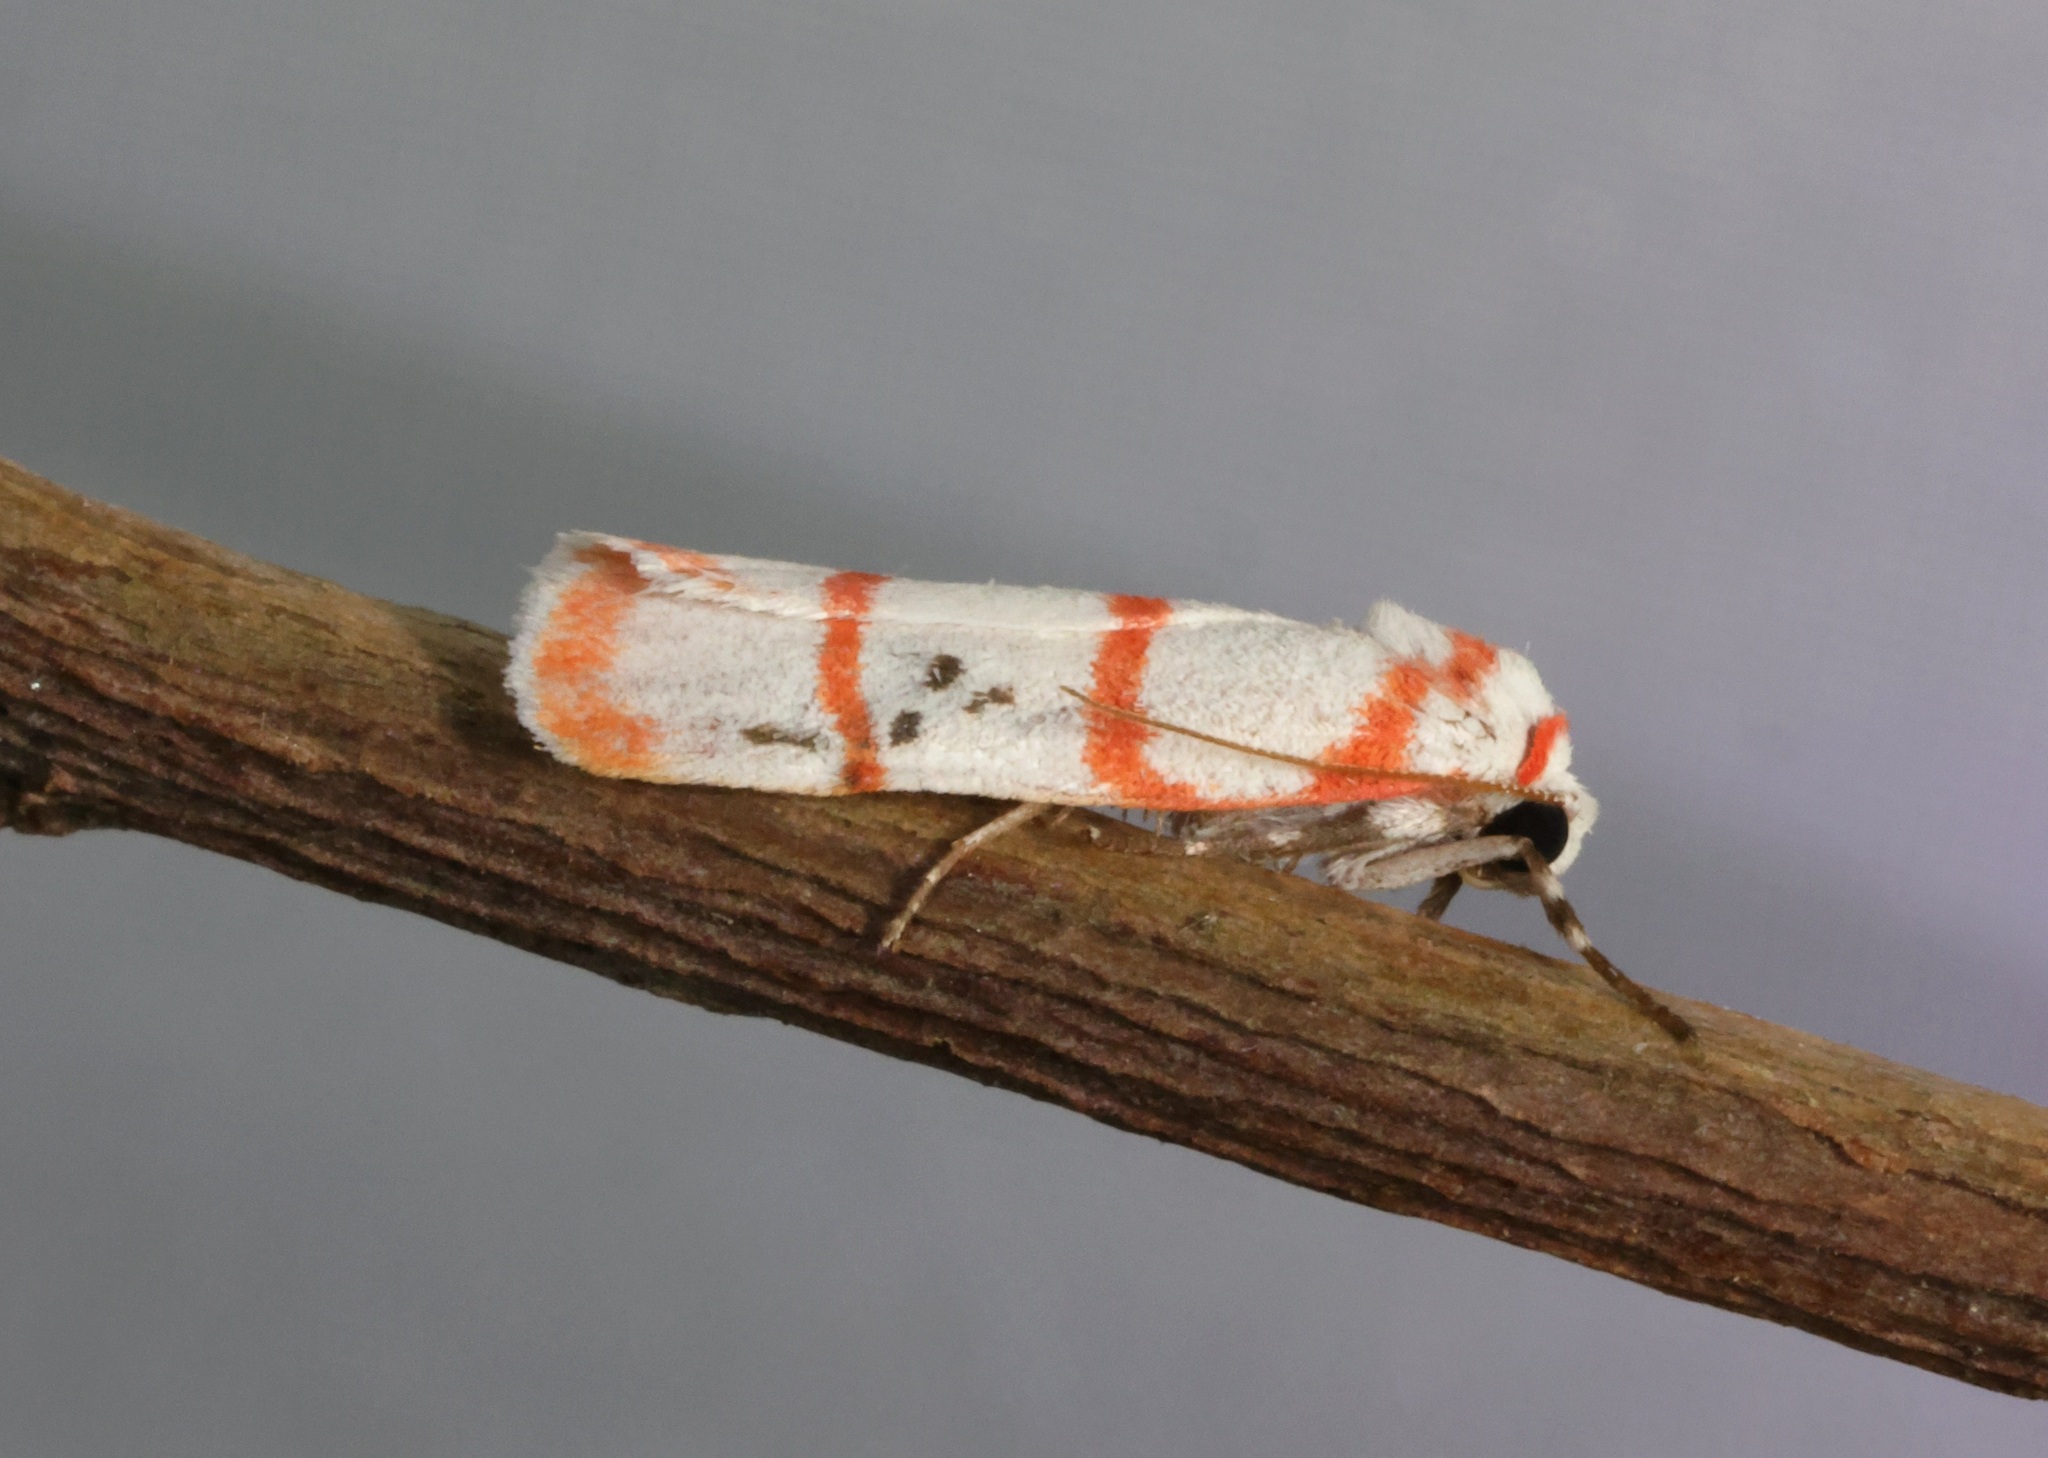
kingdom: Animalia
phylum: Arthropoda
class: Insecta
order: Lepidoptera
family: Erebidae
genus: Cyana
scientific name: Cyana gelida
